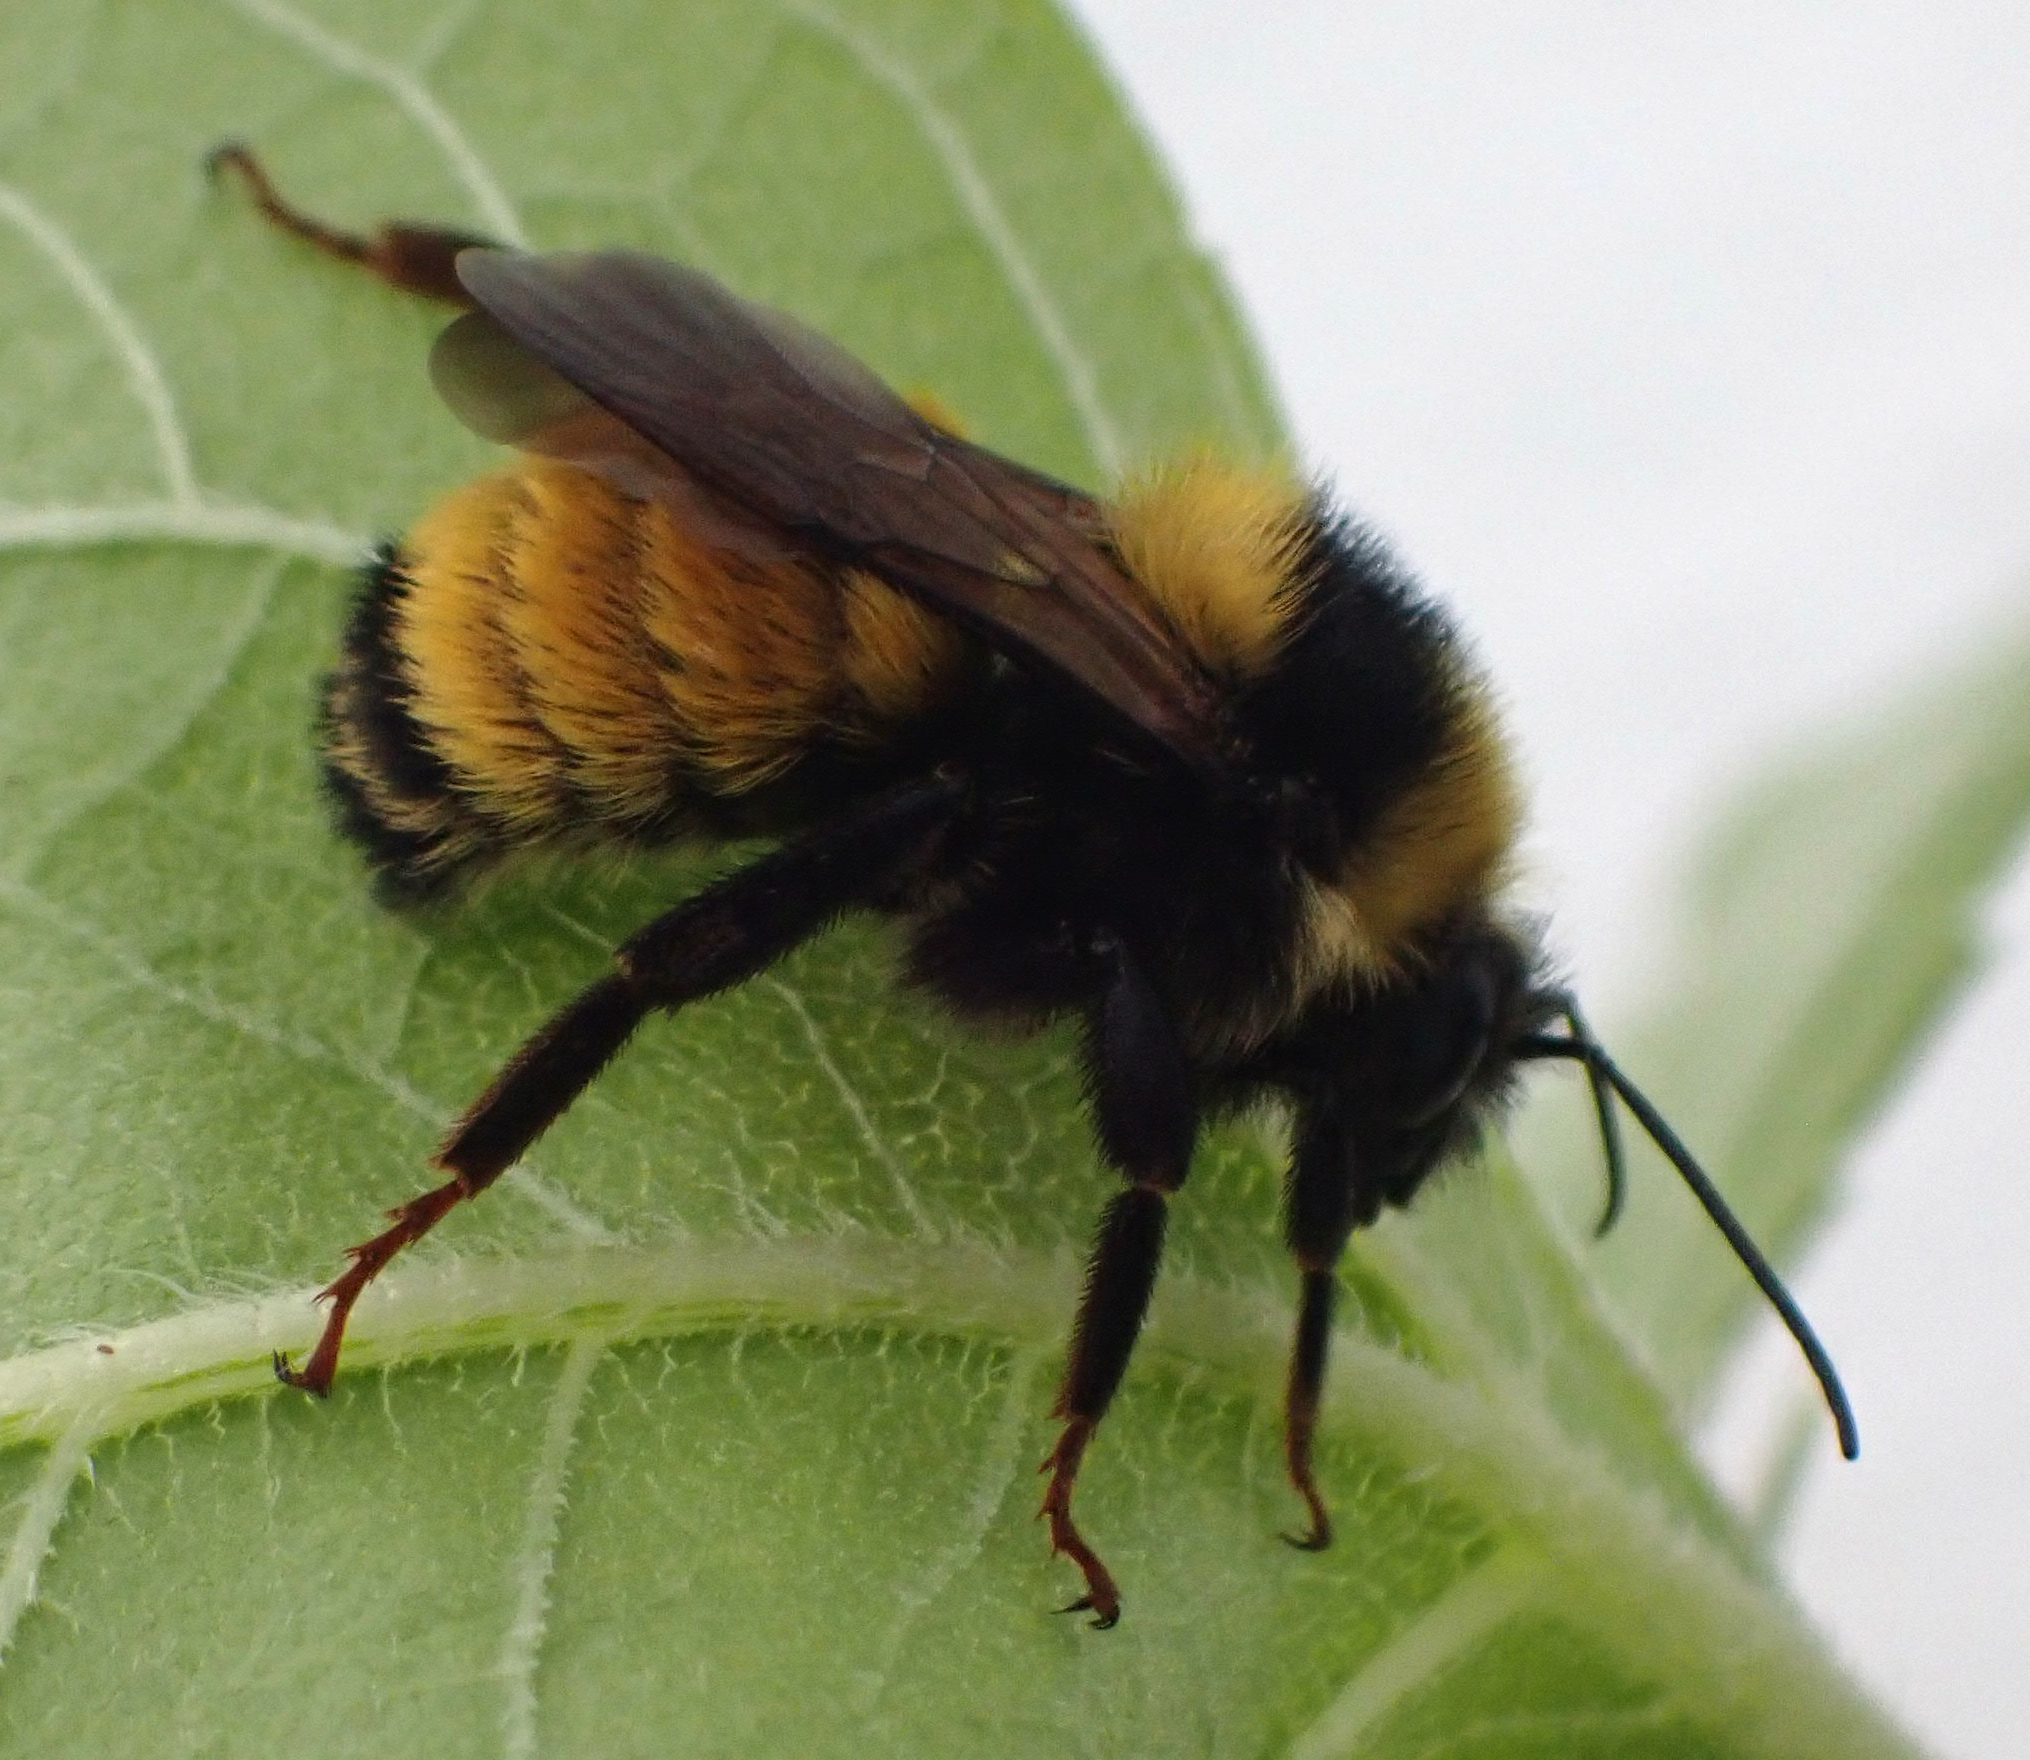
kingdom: Animalia
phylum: Arthropoda
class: Insecta
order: Hymenoptera
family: Apidae
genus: Bombus
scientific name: Bombus borealis
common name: Northern amber bumble bee
